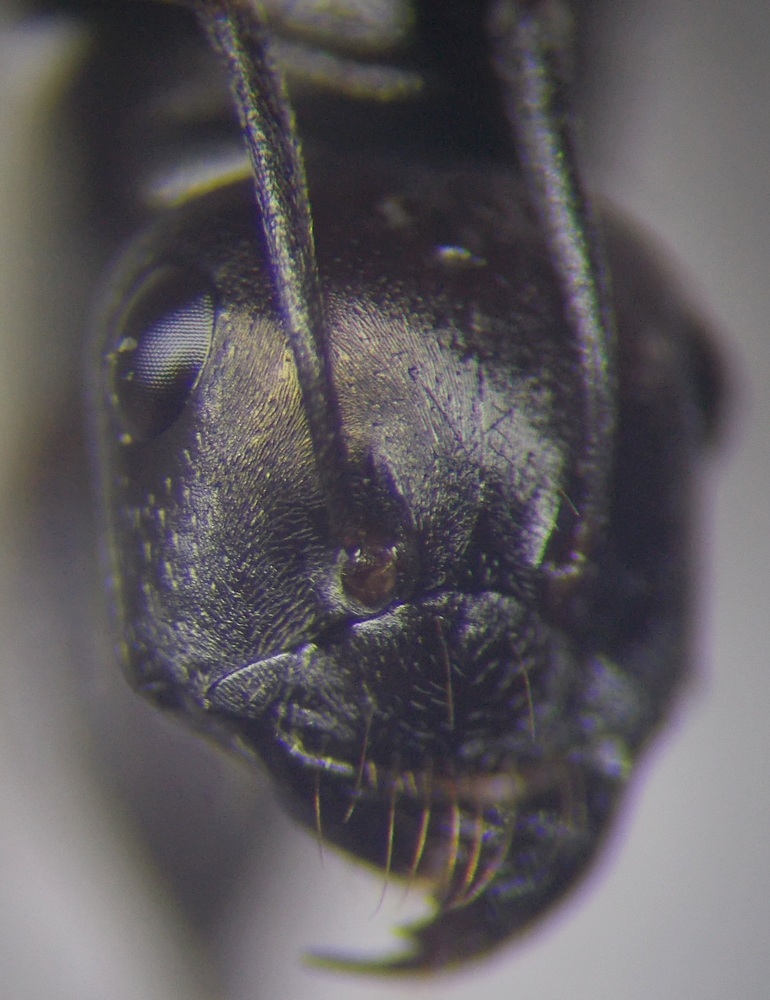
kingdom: Animalia
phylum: Arthropoda
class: Insecta
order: Hymenoptera
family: Formicidae
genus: Cataglyphis
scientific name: Cataglyphis aenescens
